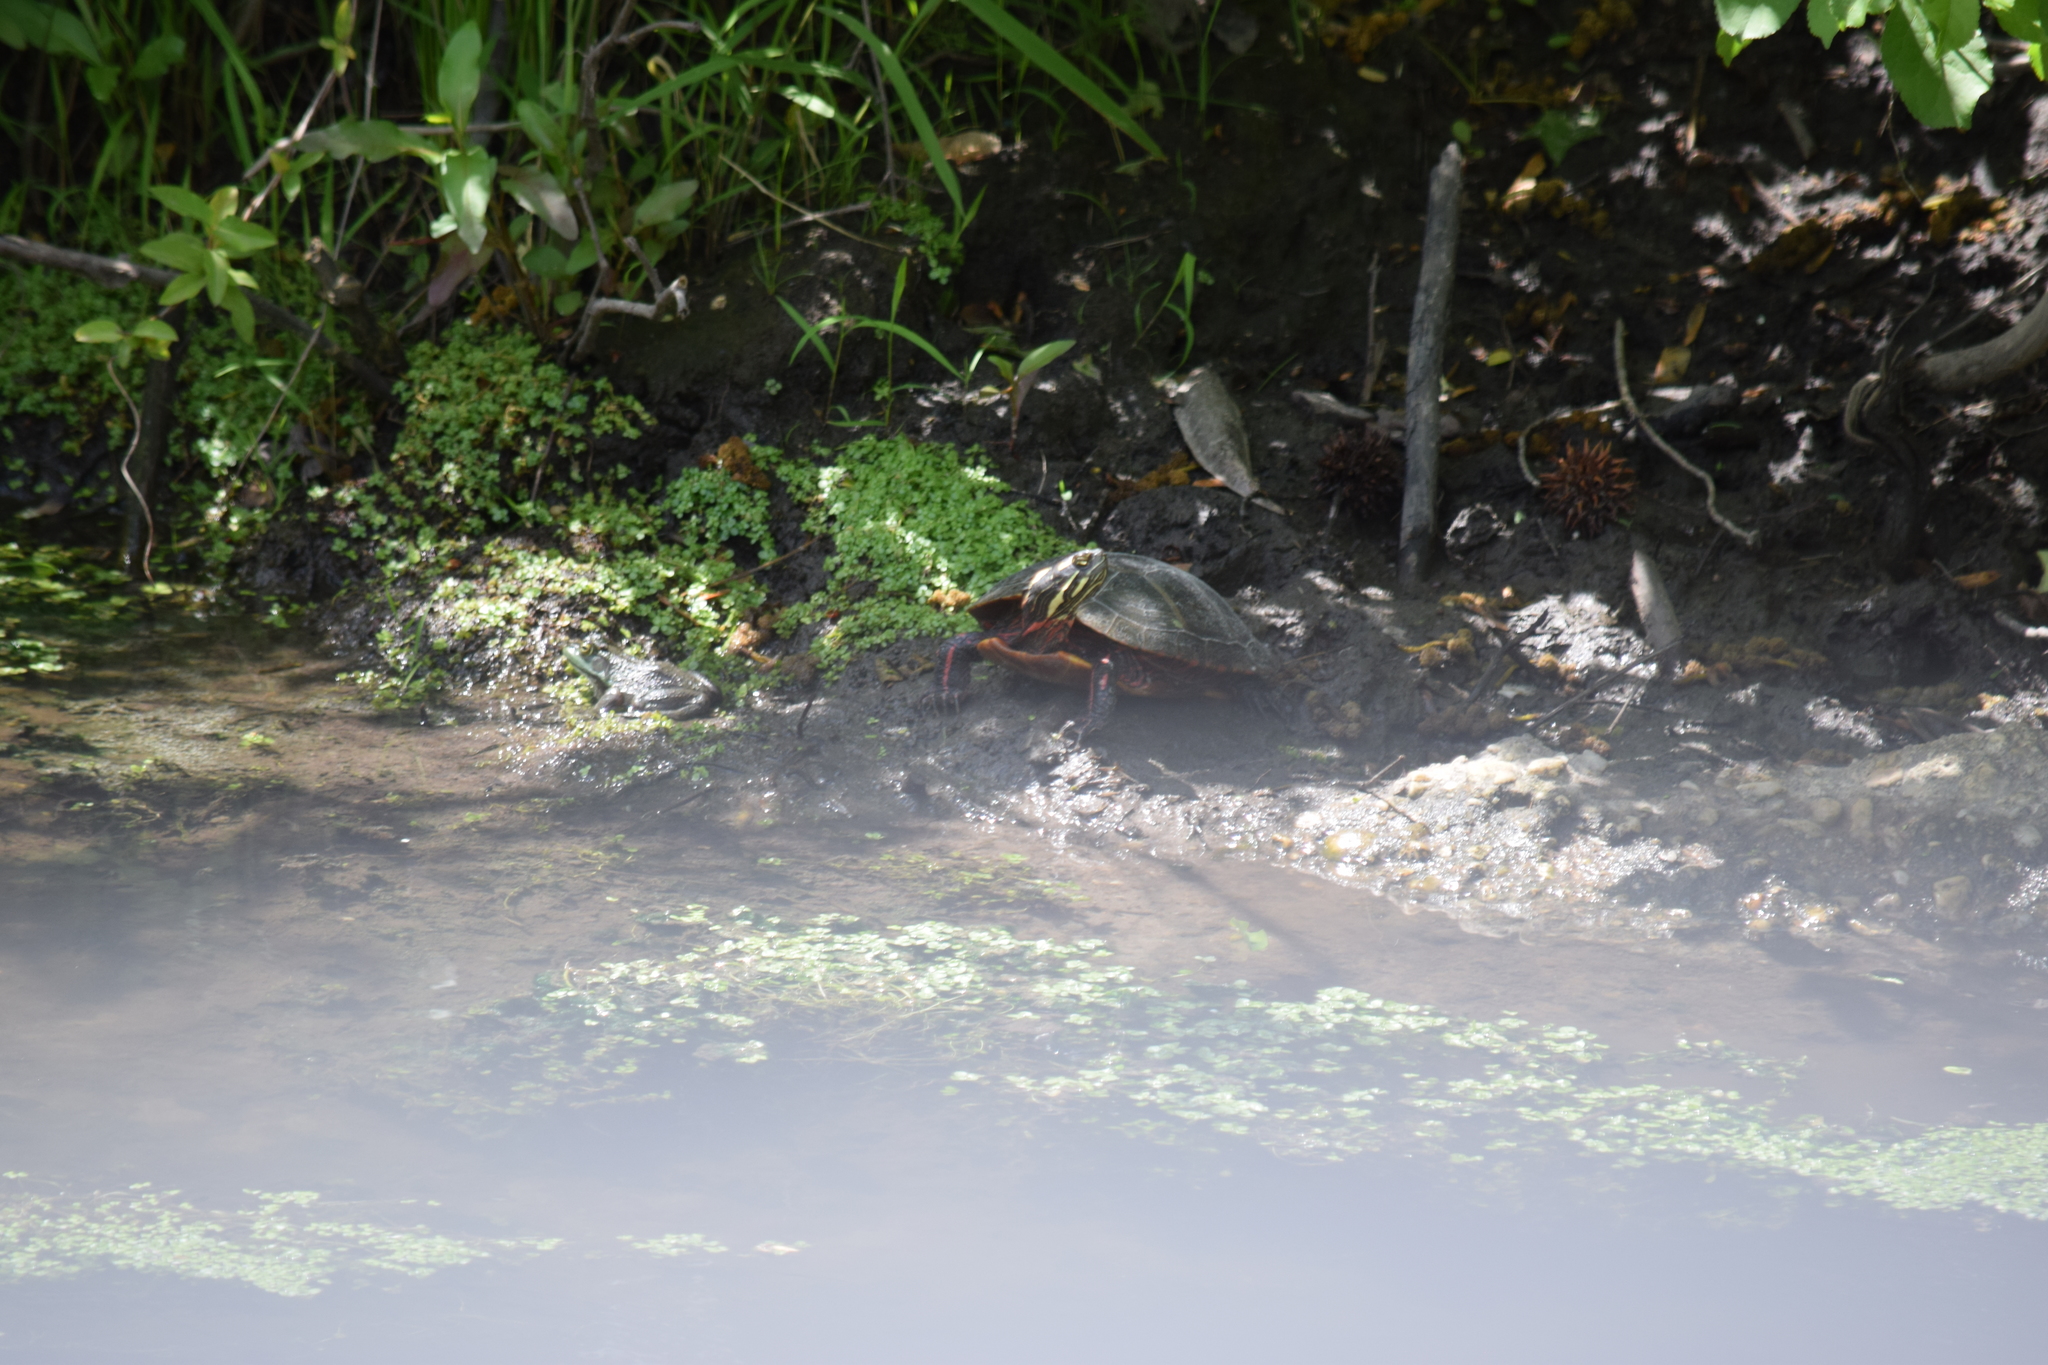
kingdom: Animalia
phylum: Chordata
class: Testudines
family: Emydidae
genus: Chrysemys
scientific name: Chrysemys picta
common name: Painted turtle
